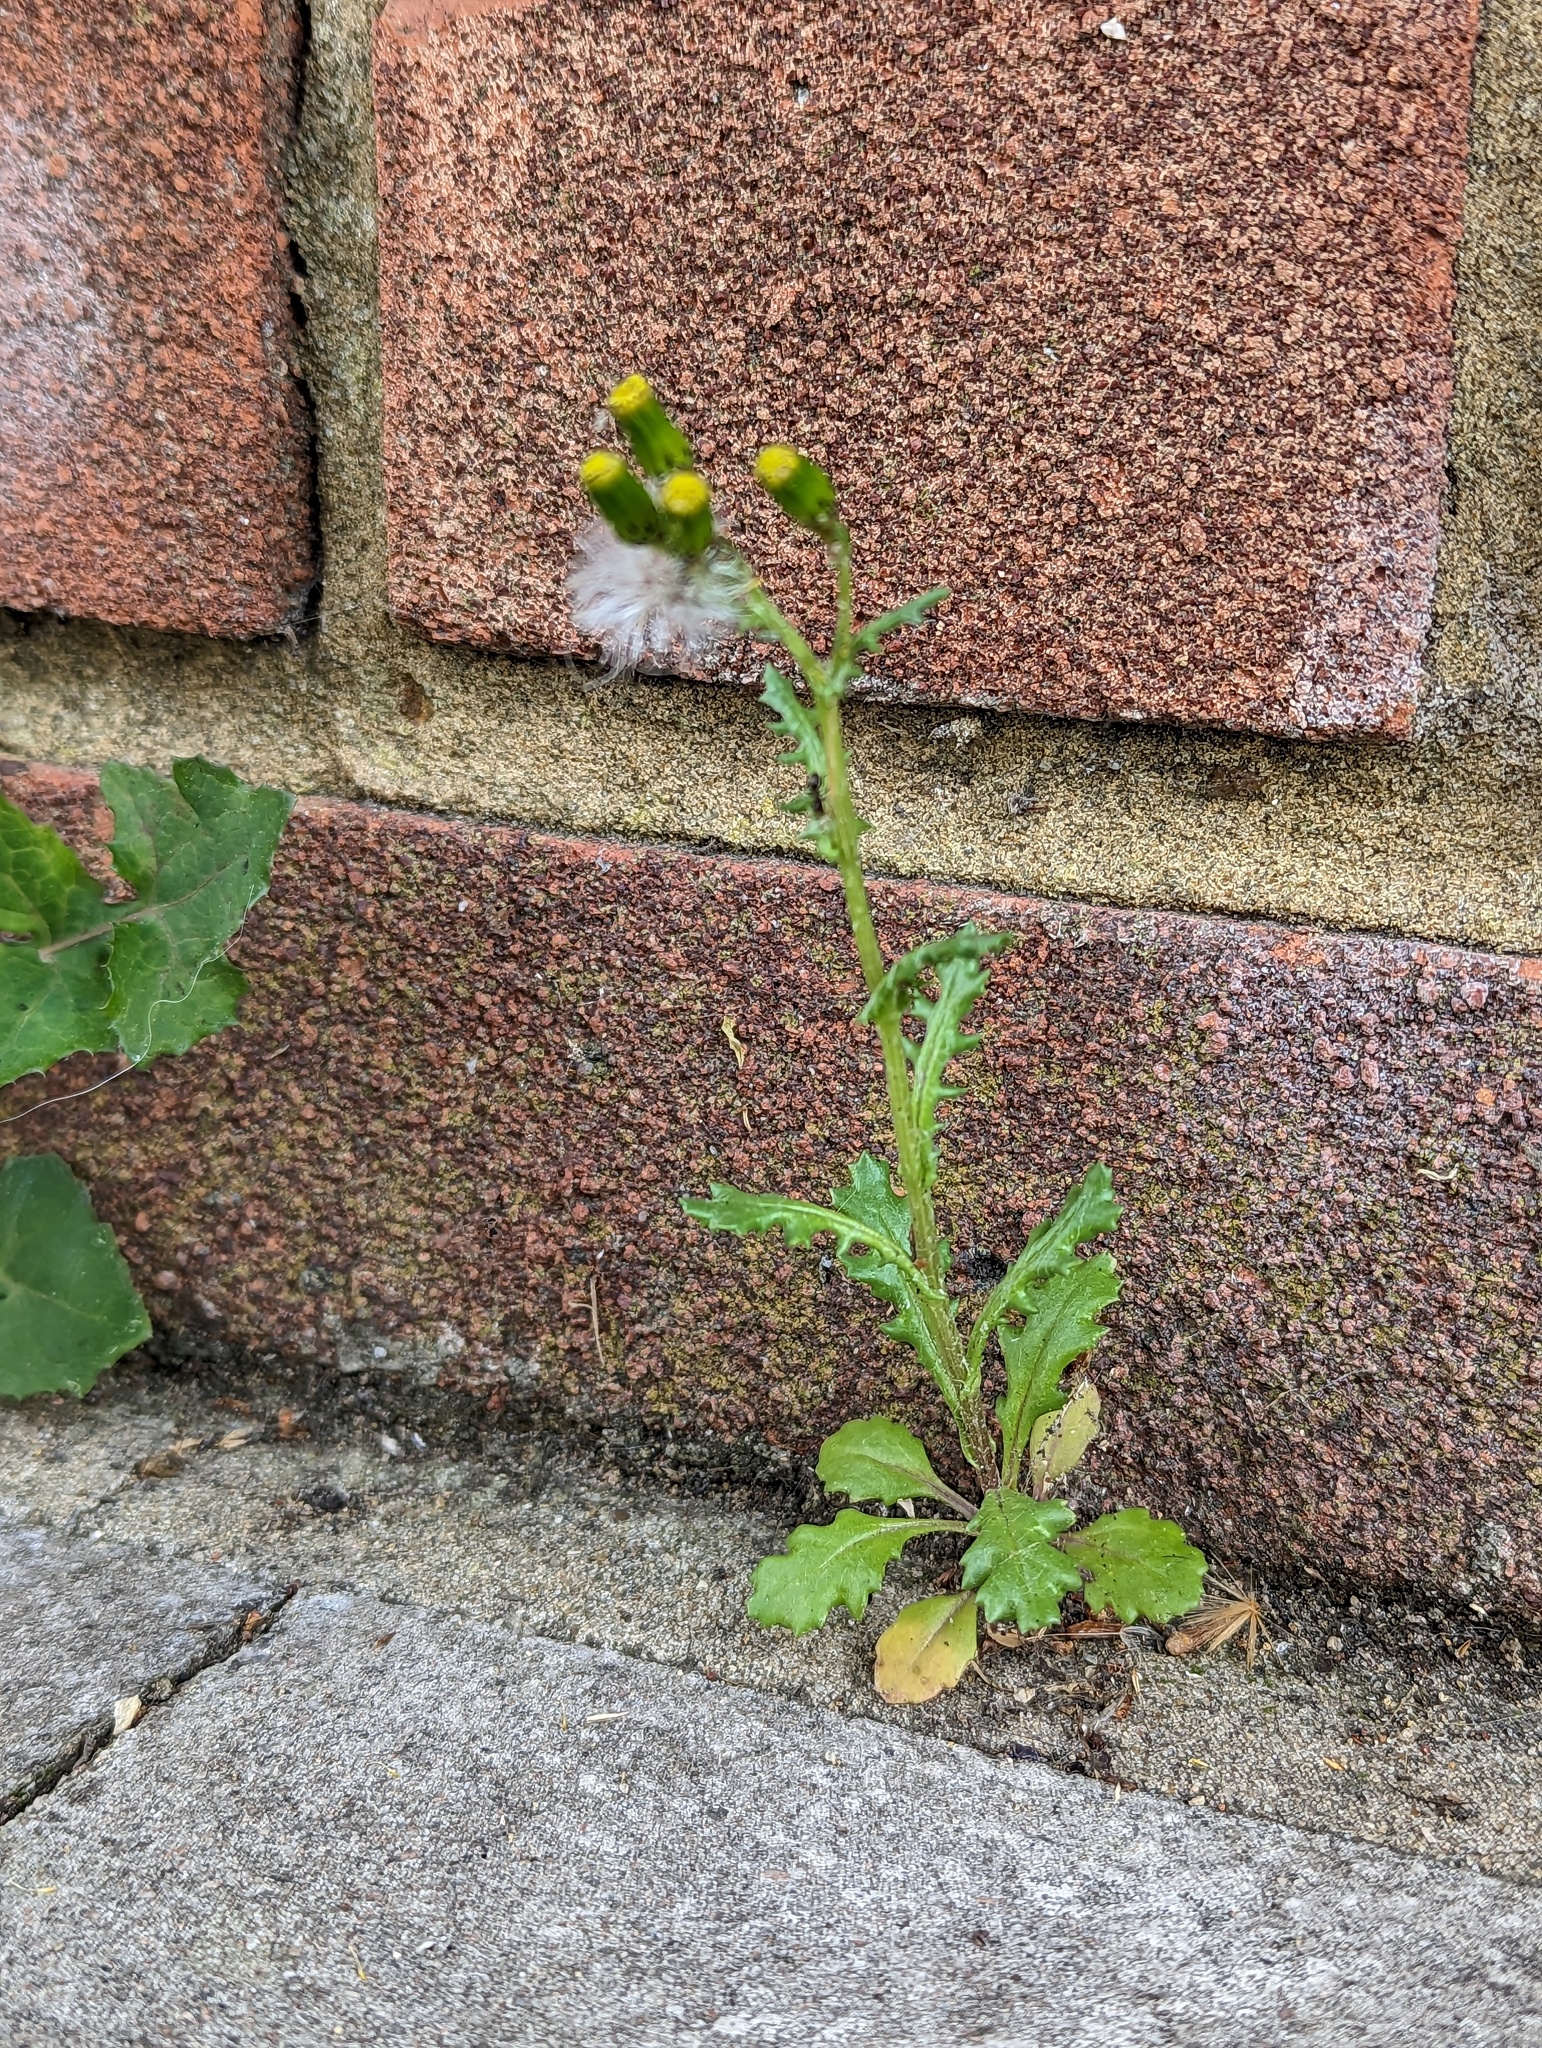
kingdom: Plantae
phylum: Tracheophyta
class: Magnoliopsida
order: Asterales
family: Asteraceae
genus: Senecio
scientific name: Senecio vulgaris
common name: Old-man-in-the-spring
